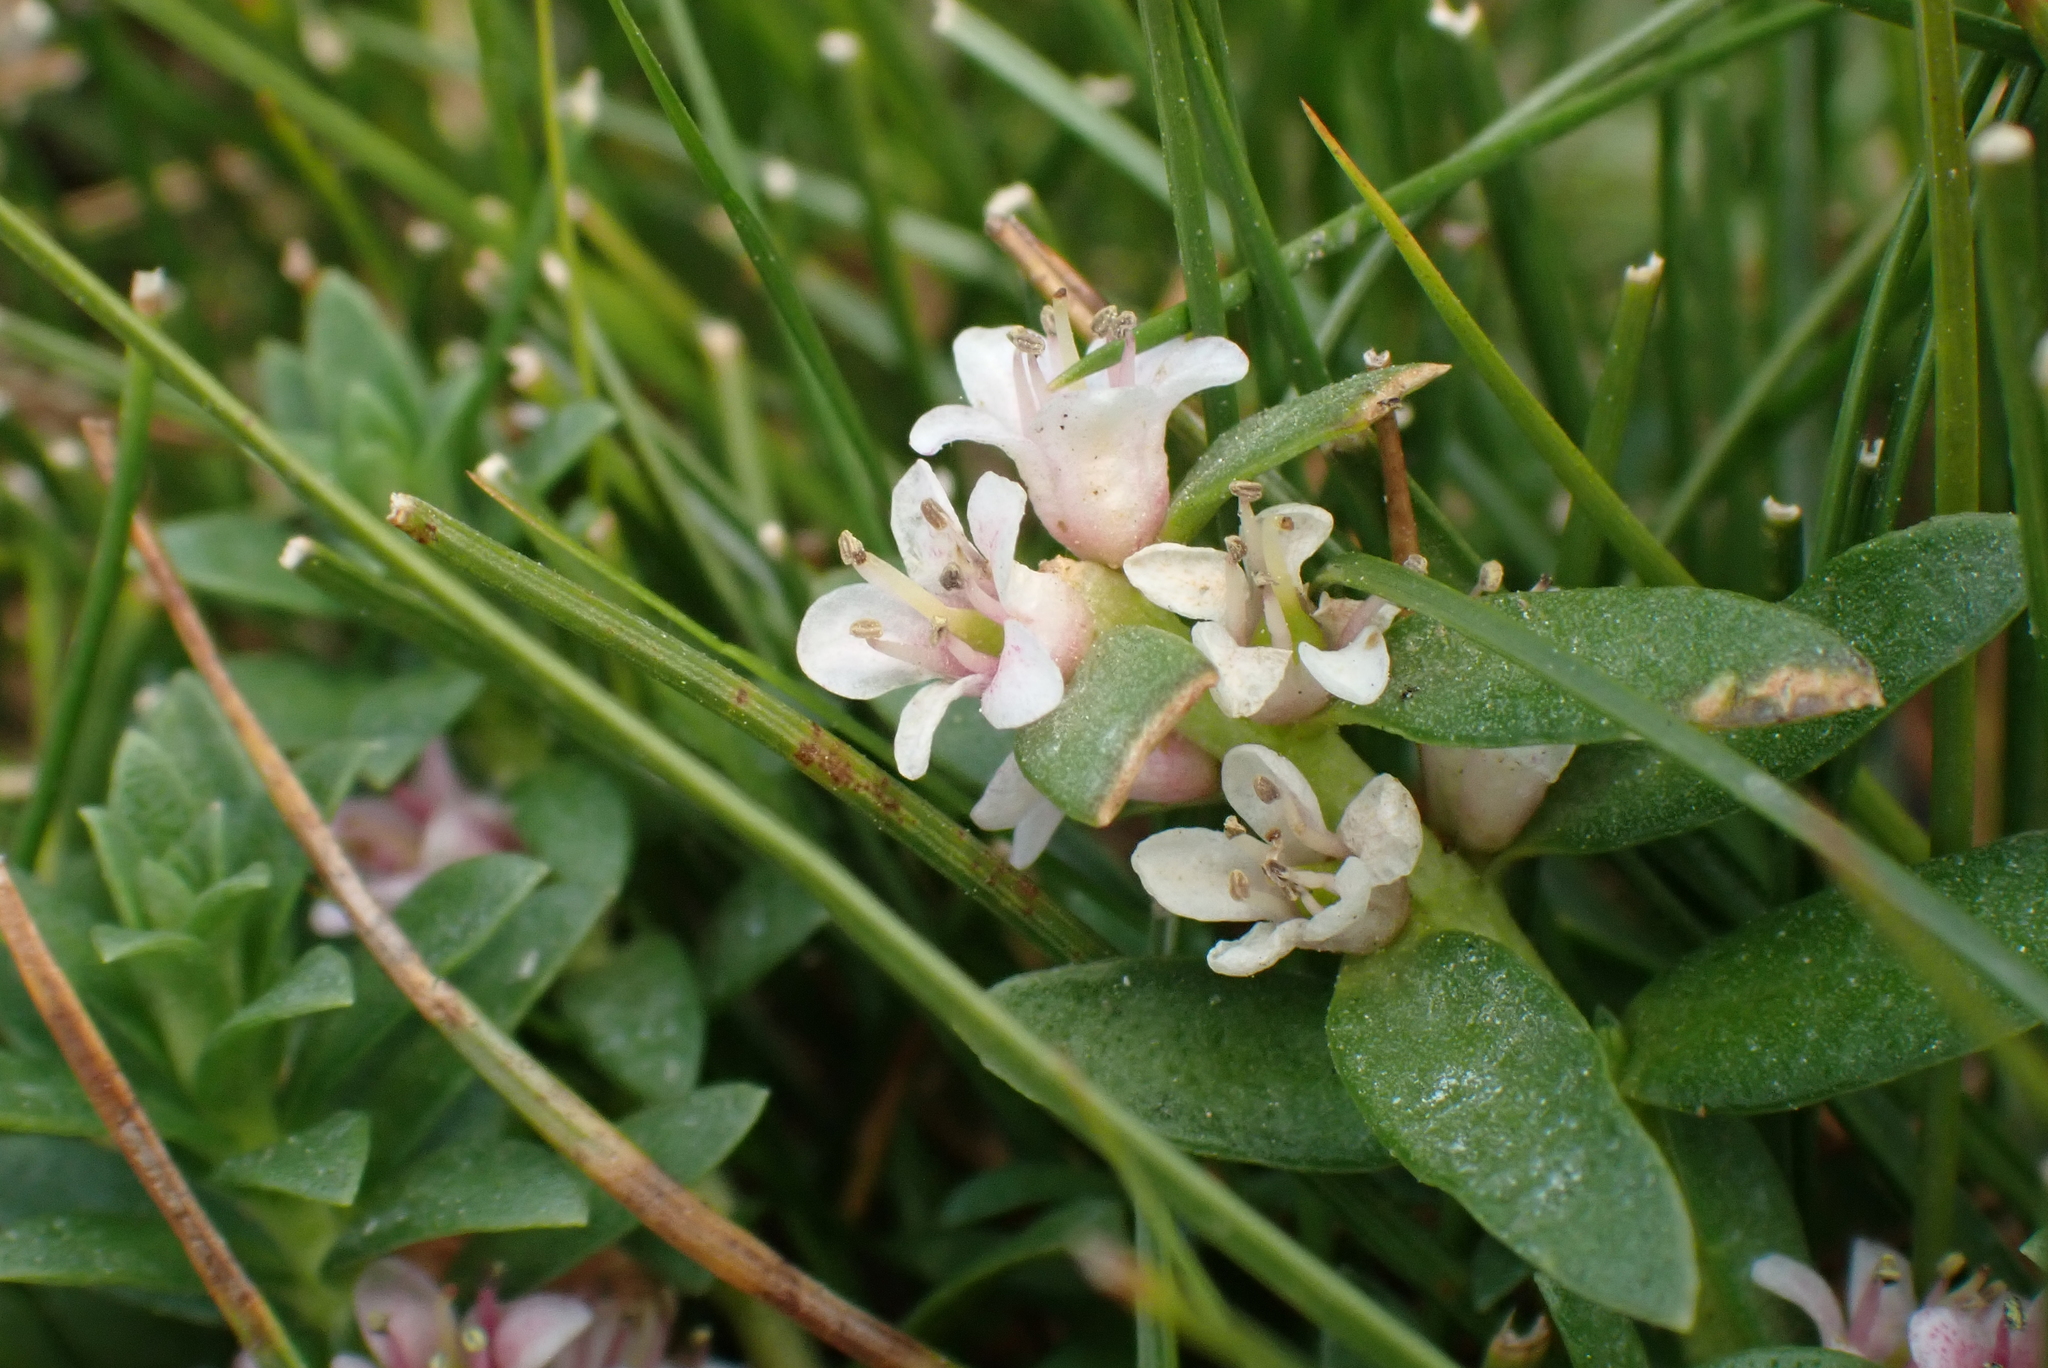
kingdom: Plantae
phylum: Tracheophyta
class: Magnoliopsida
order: Ericales
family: Primulaceae
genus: Lysimachia
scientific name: Lysimachia maritima
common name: Sea milkwort
